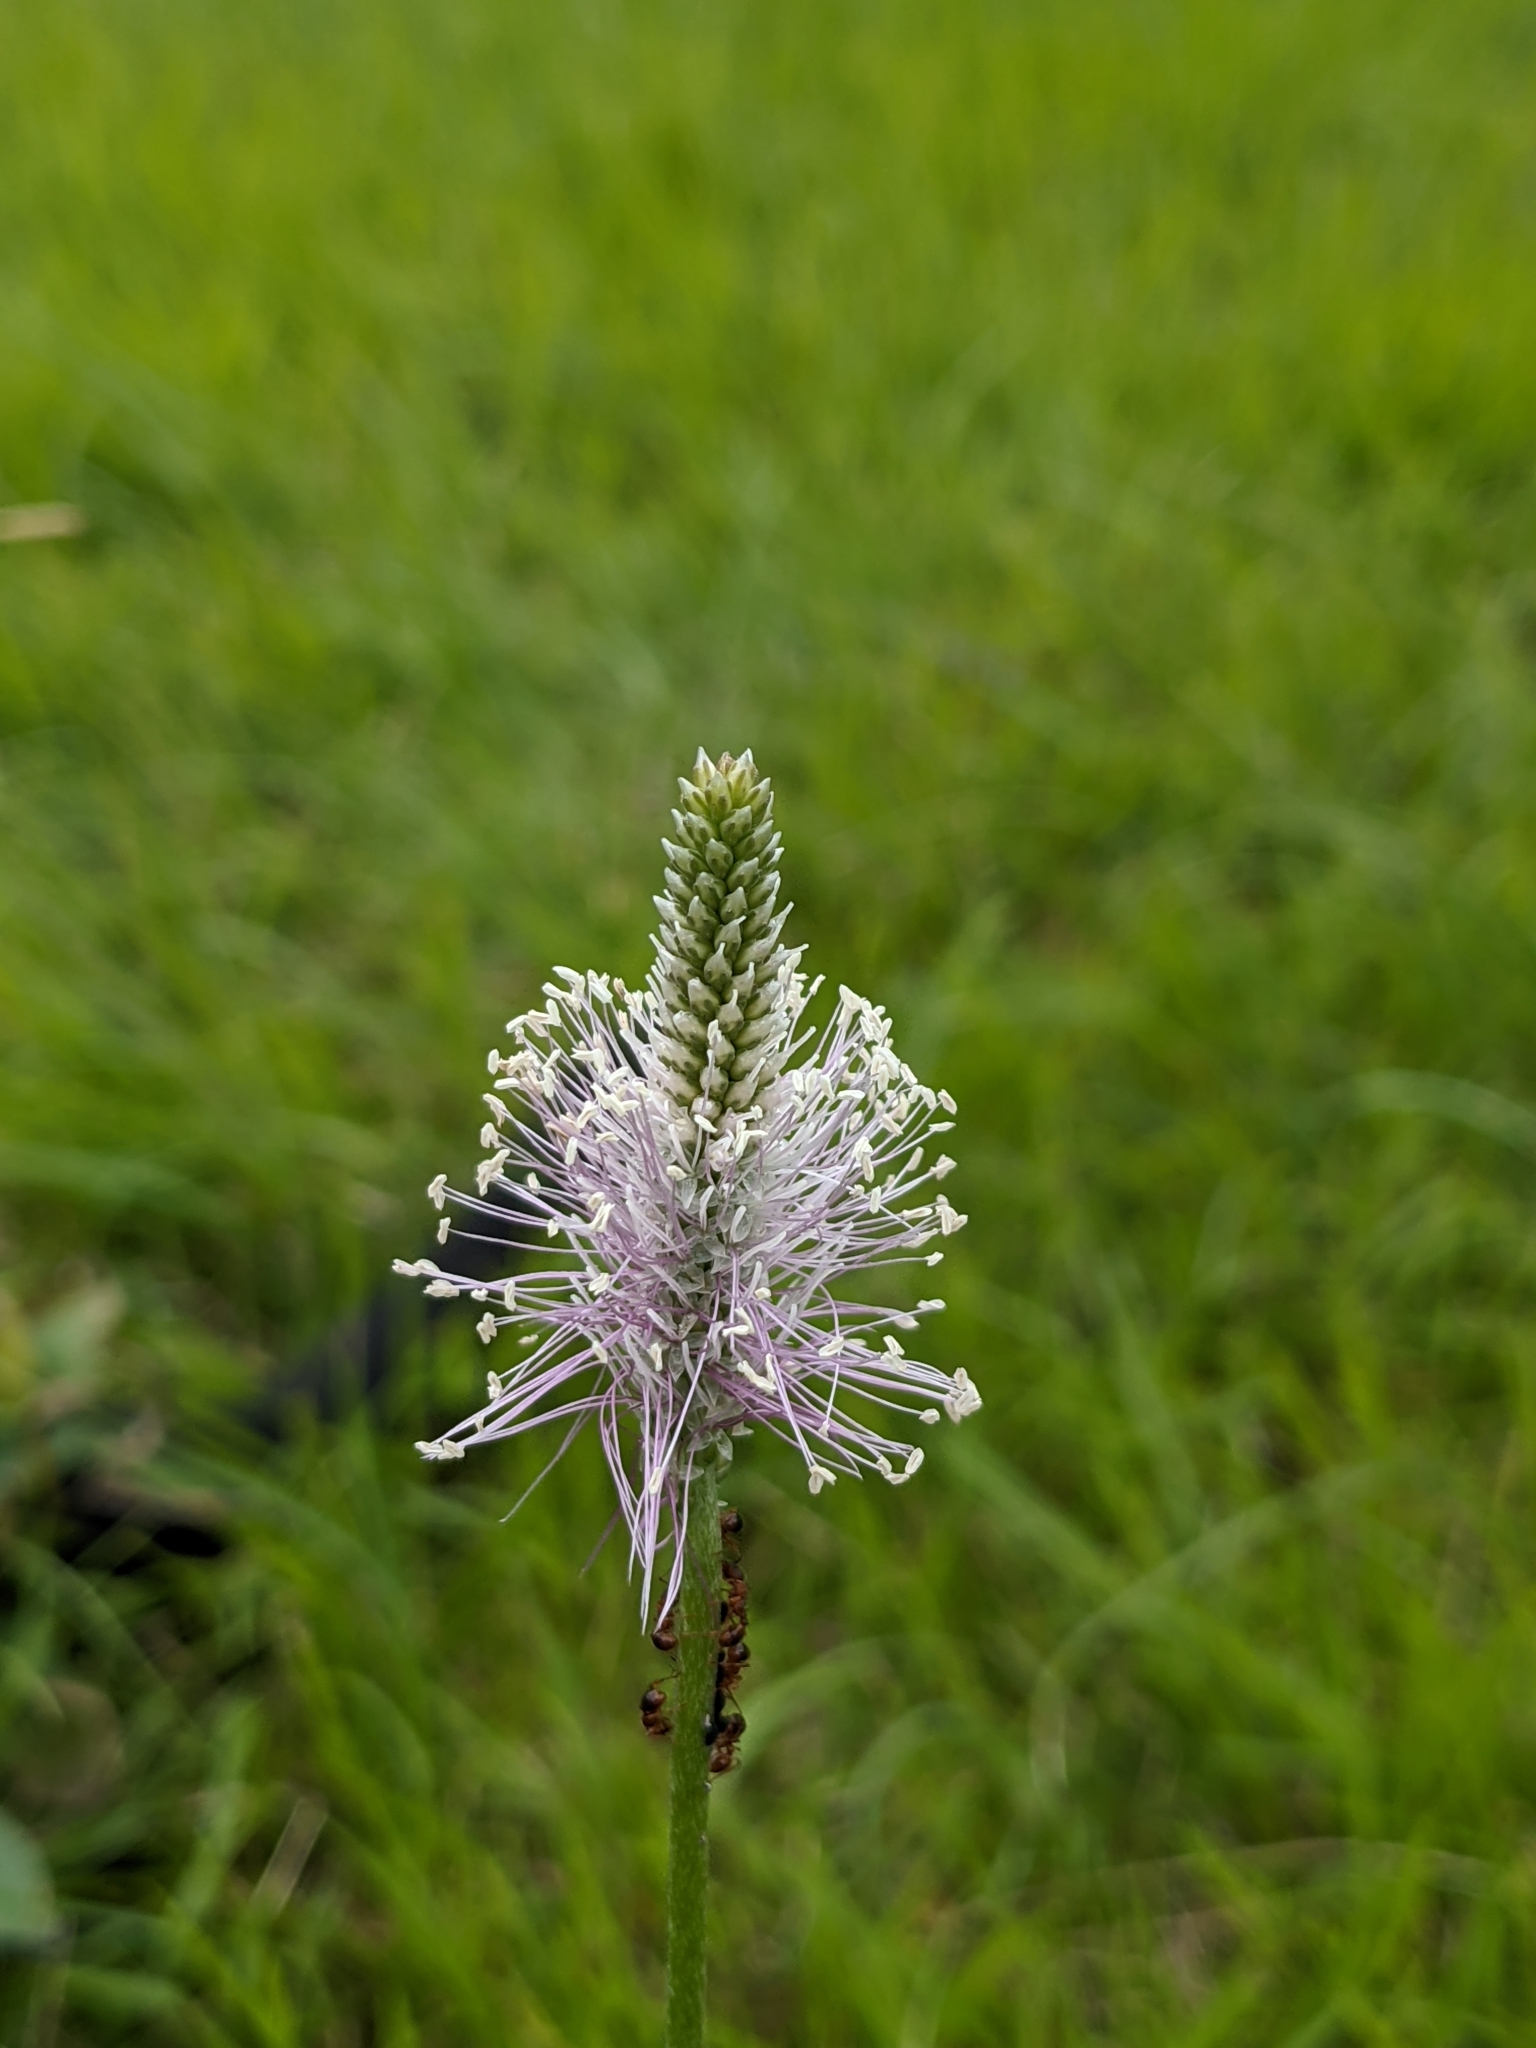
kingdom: Plantae
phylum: Tracheophyta
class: Magnoliopsida
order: Lamiales
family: Plantaginaceae
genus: Plantago
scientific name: Plantago media
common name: Hoary plantain
